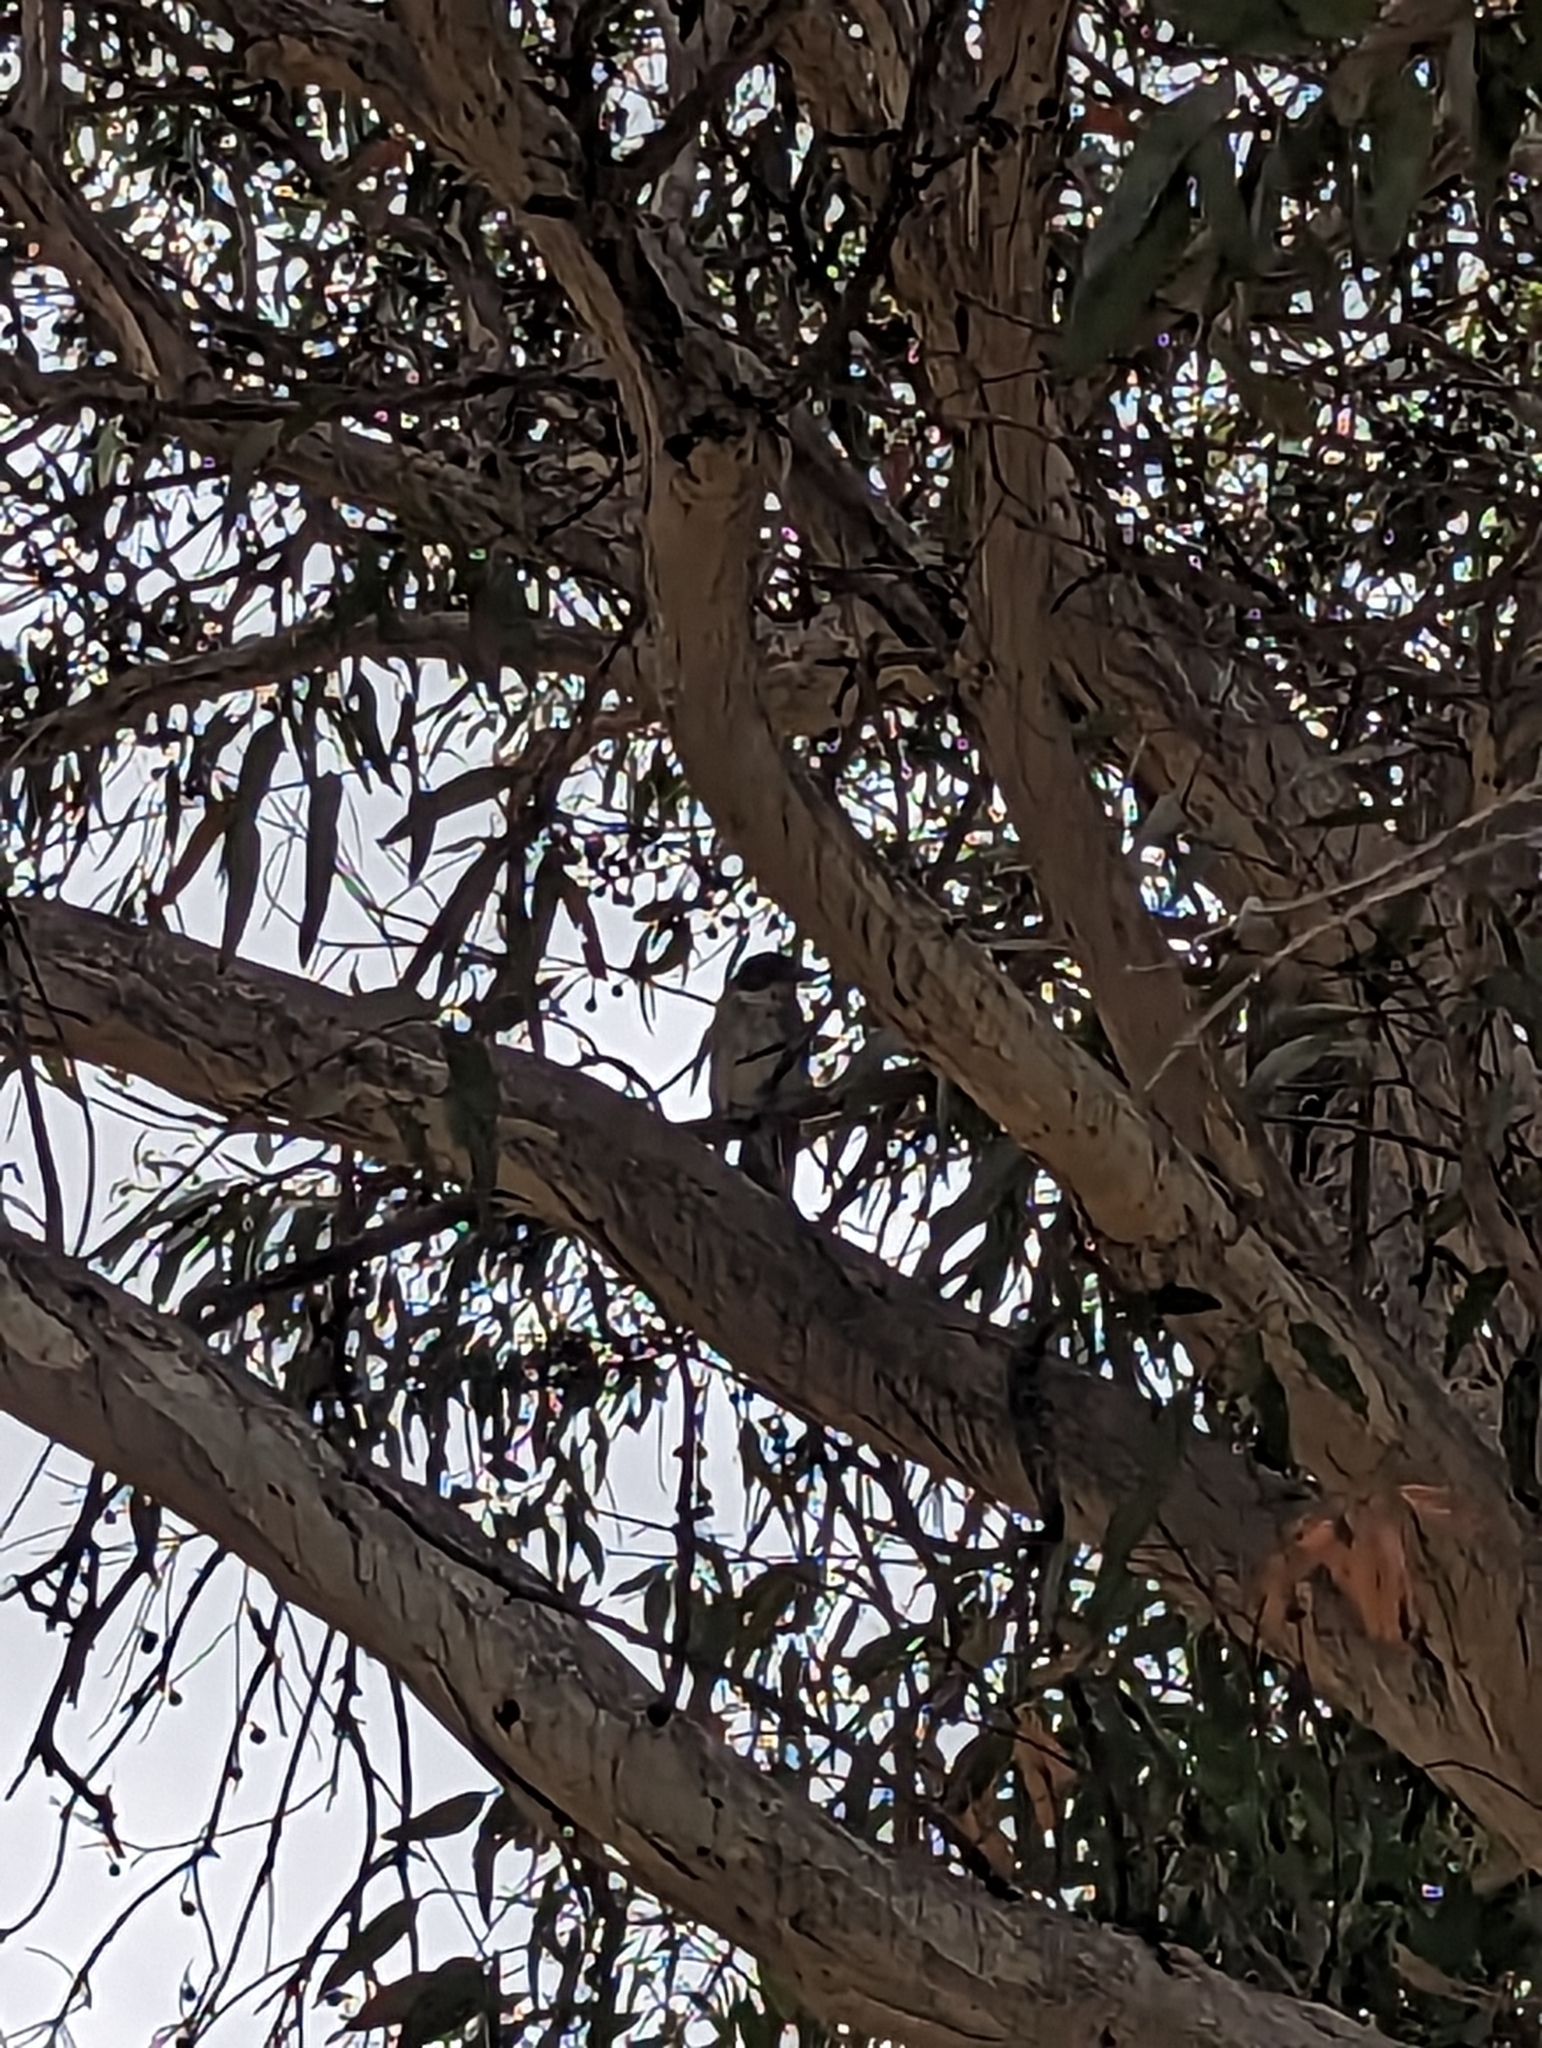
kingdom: Animalia
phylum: Chordata
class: Aves
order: Passeriformes
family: Cracticidae
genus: Cracticus
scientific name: Cracticus torquatus
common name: Grey butcherbird
